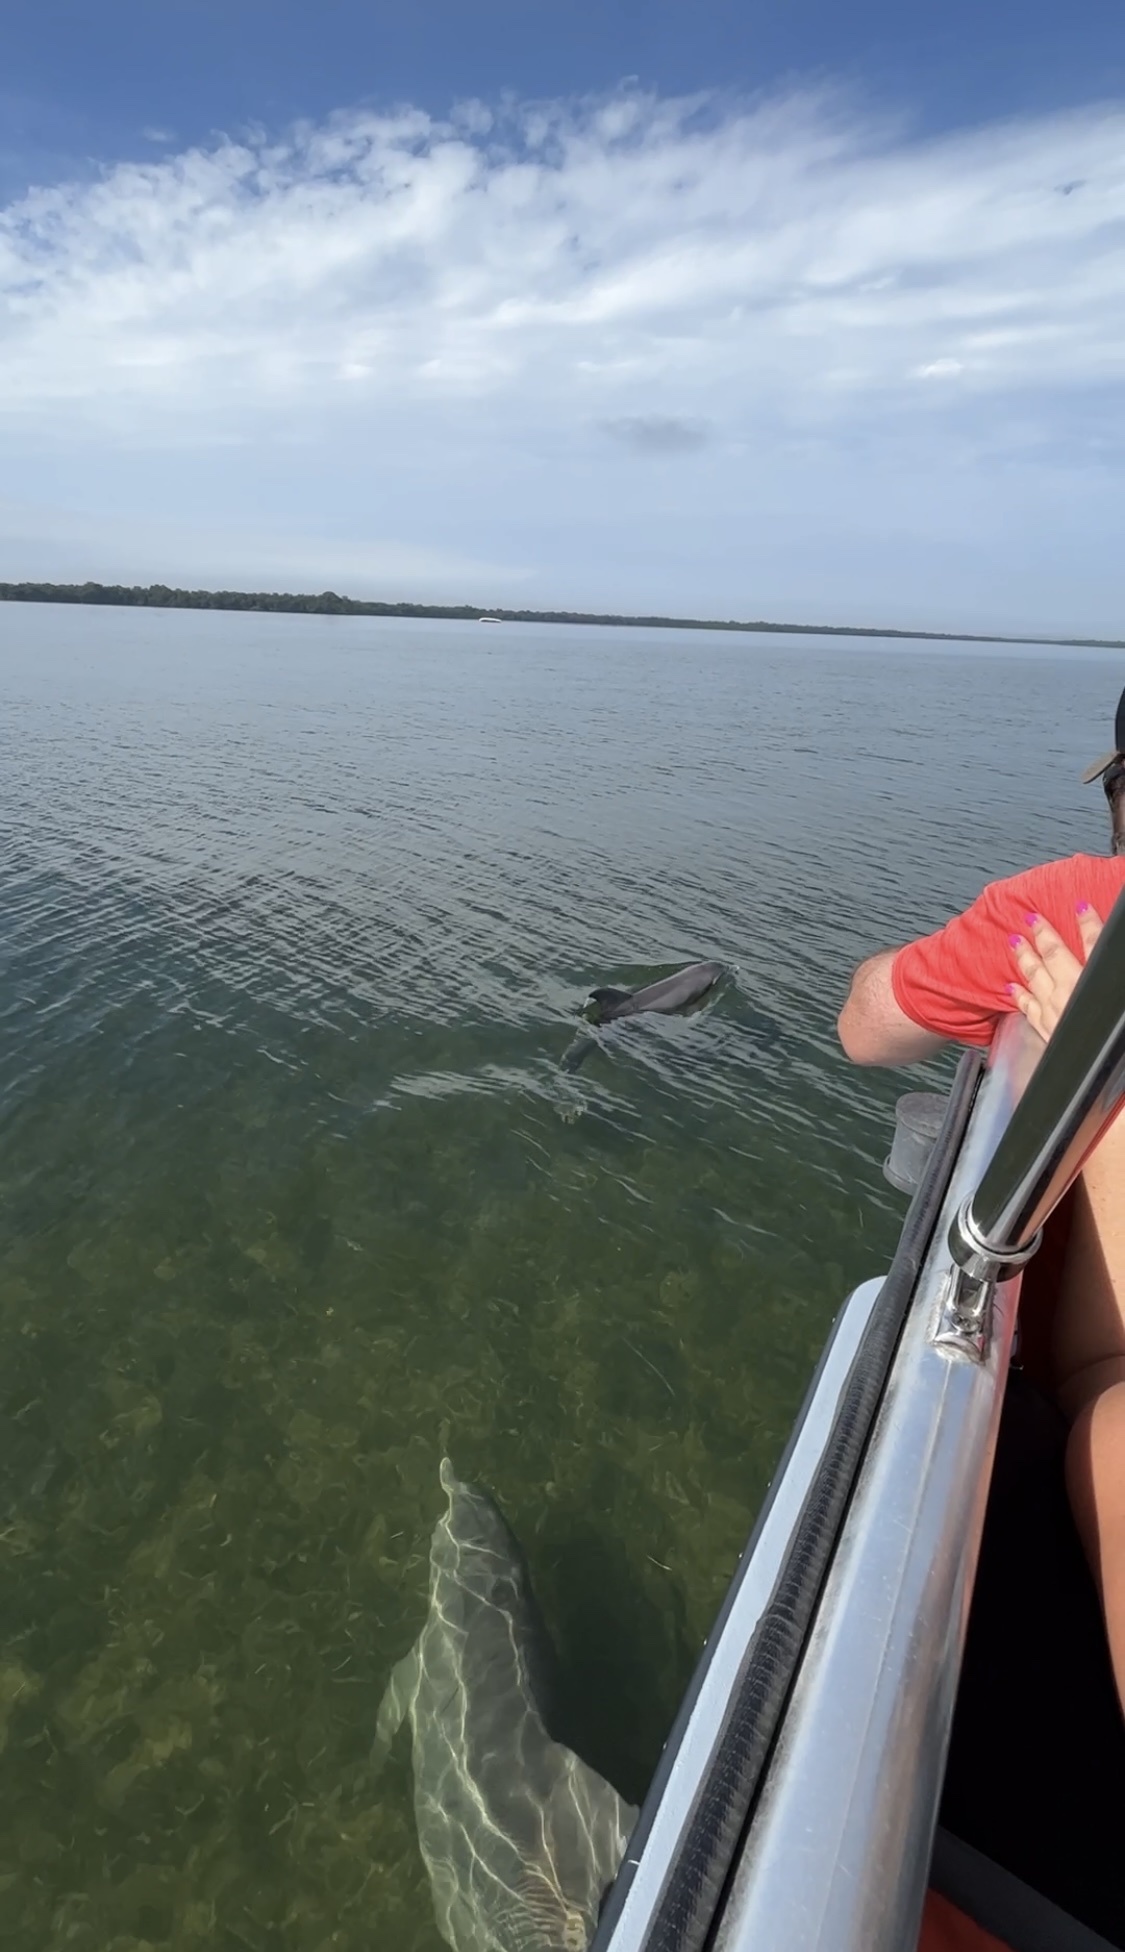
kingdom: Animalia
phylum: Chordata
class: Mammalia
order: Cetacea
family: Delphinidae
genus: Tursiops
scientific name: Tursiops truncatus
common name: Bottlenose dolphin
